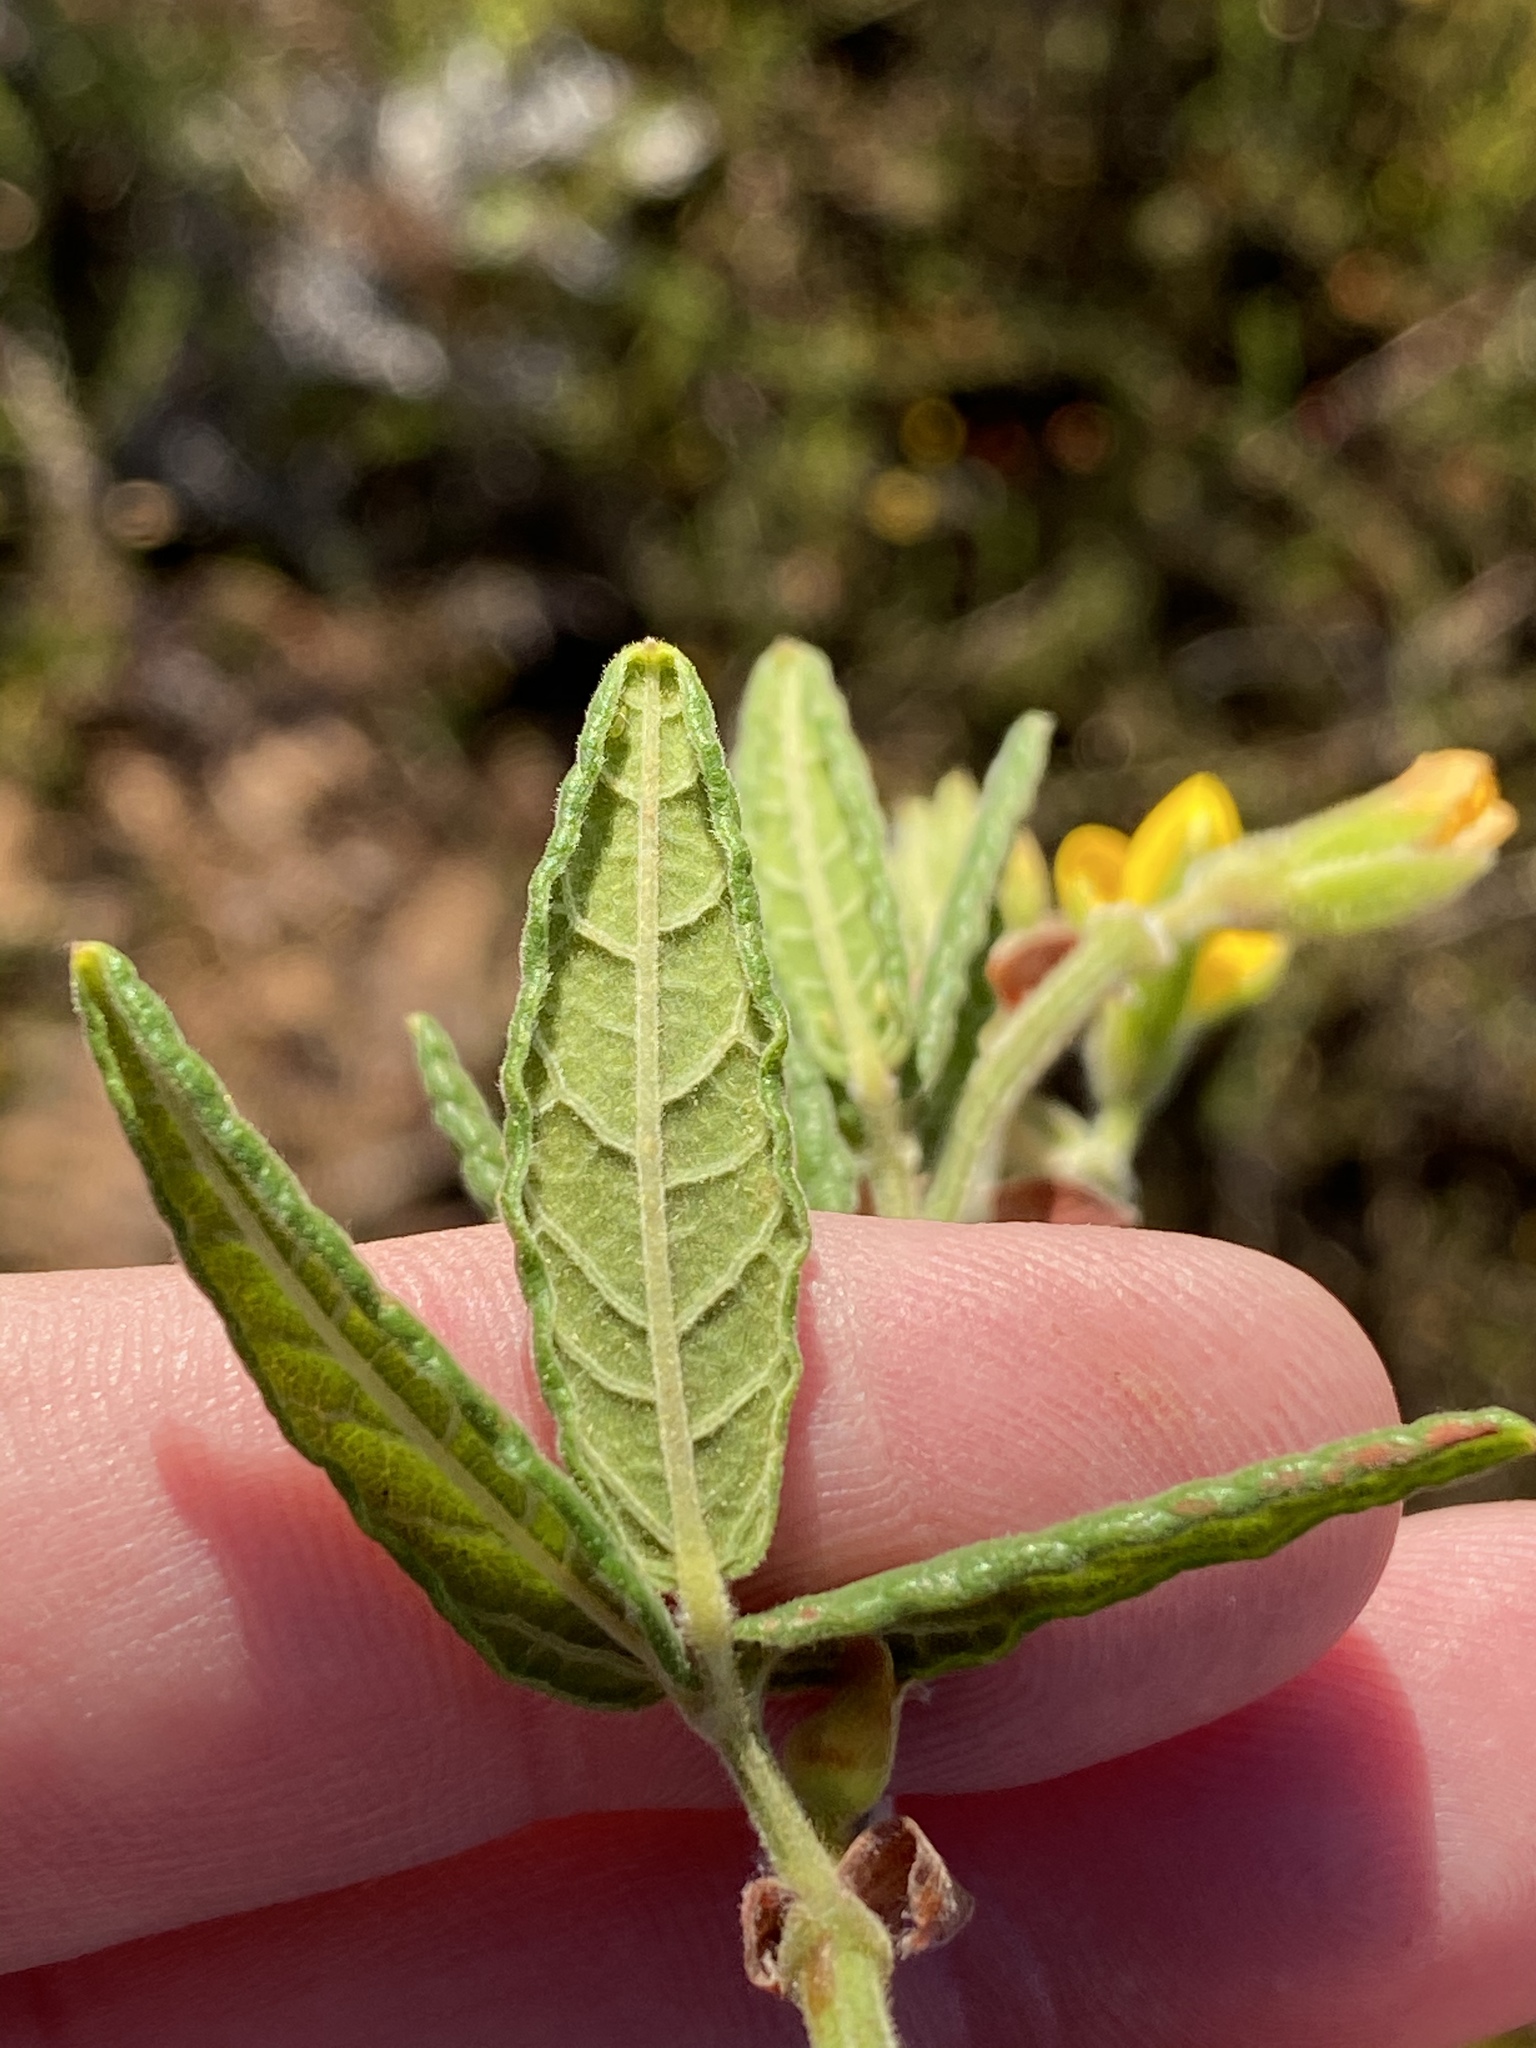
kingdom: Plantae
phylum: Tracheophyta
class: Magnoliopsida
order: Fabales
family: Fabaceae
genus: Rhynchosia
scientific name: Rhynchosia chrysoscias
